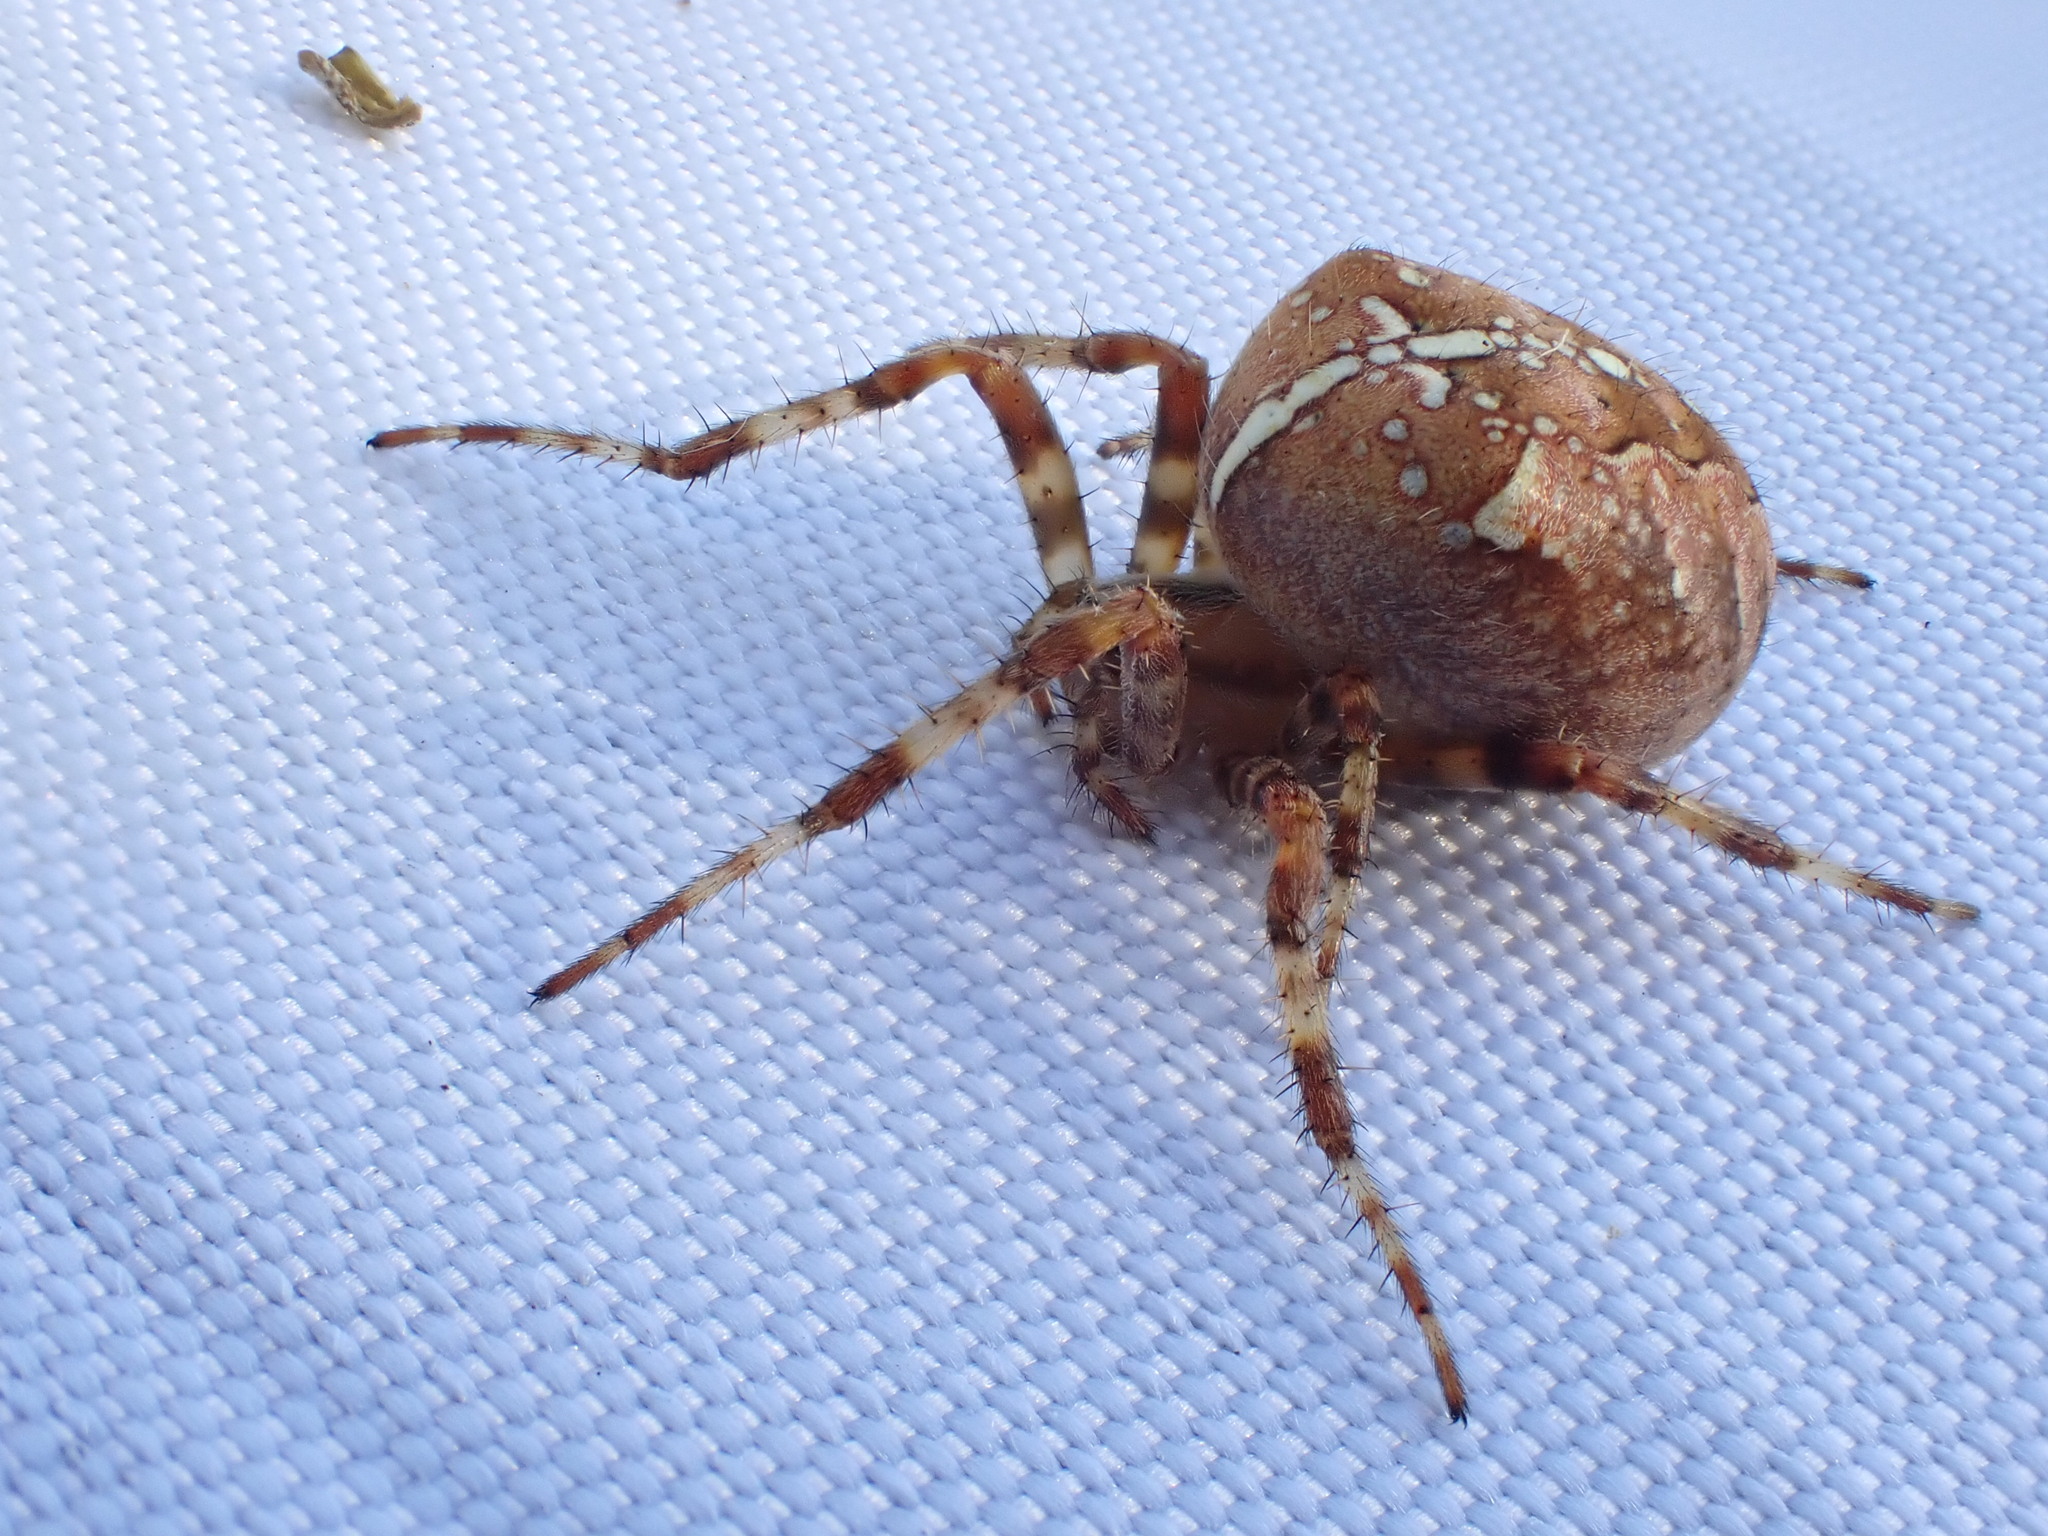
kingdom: Animalia
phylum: Arthropoda
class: Arachnida
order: Araneae
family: Araneidae
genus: Araneus
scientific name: Araneus diadematus
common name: Cross orbweaver
